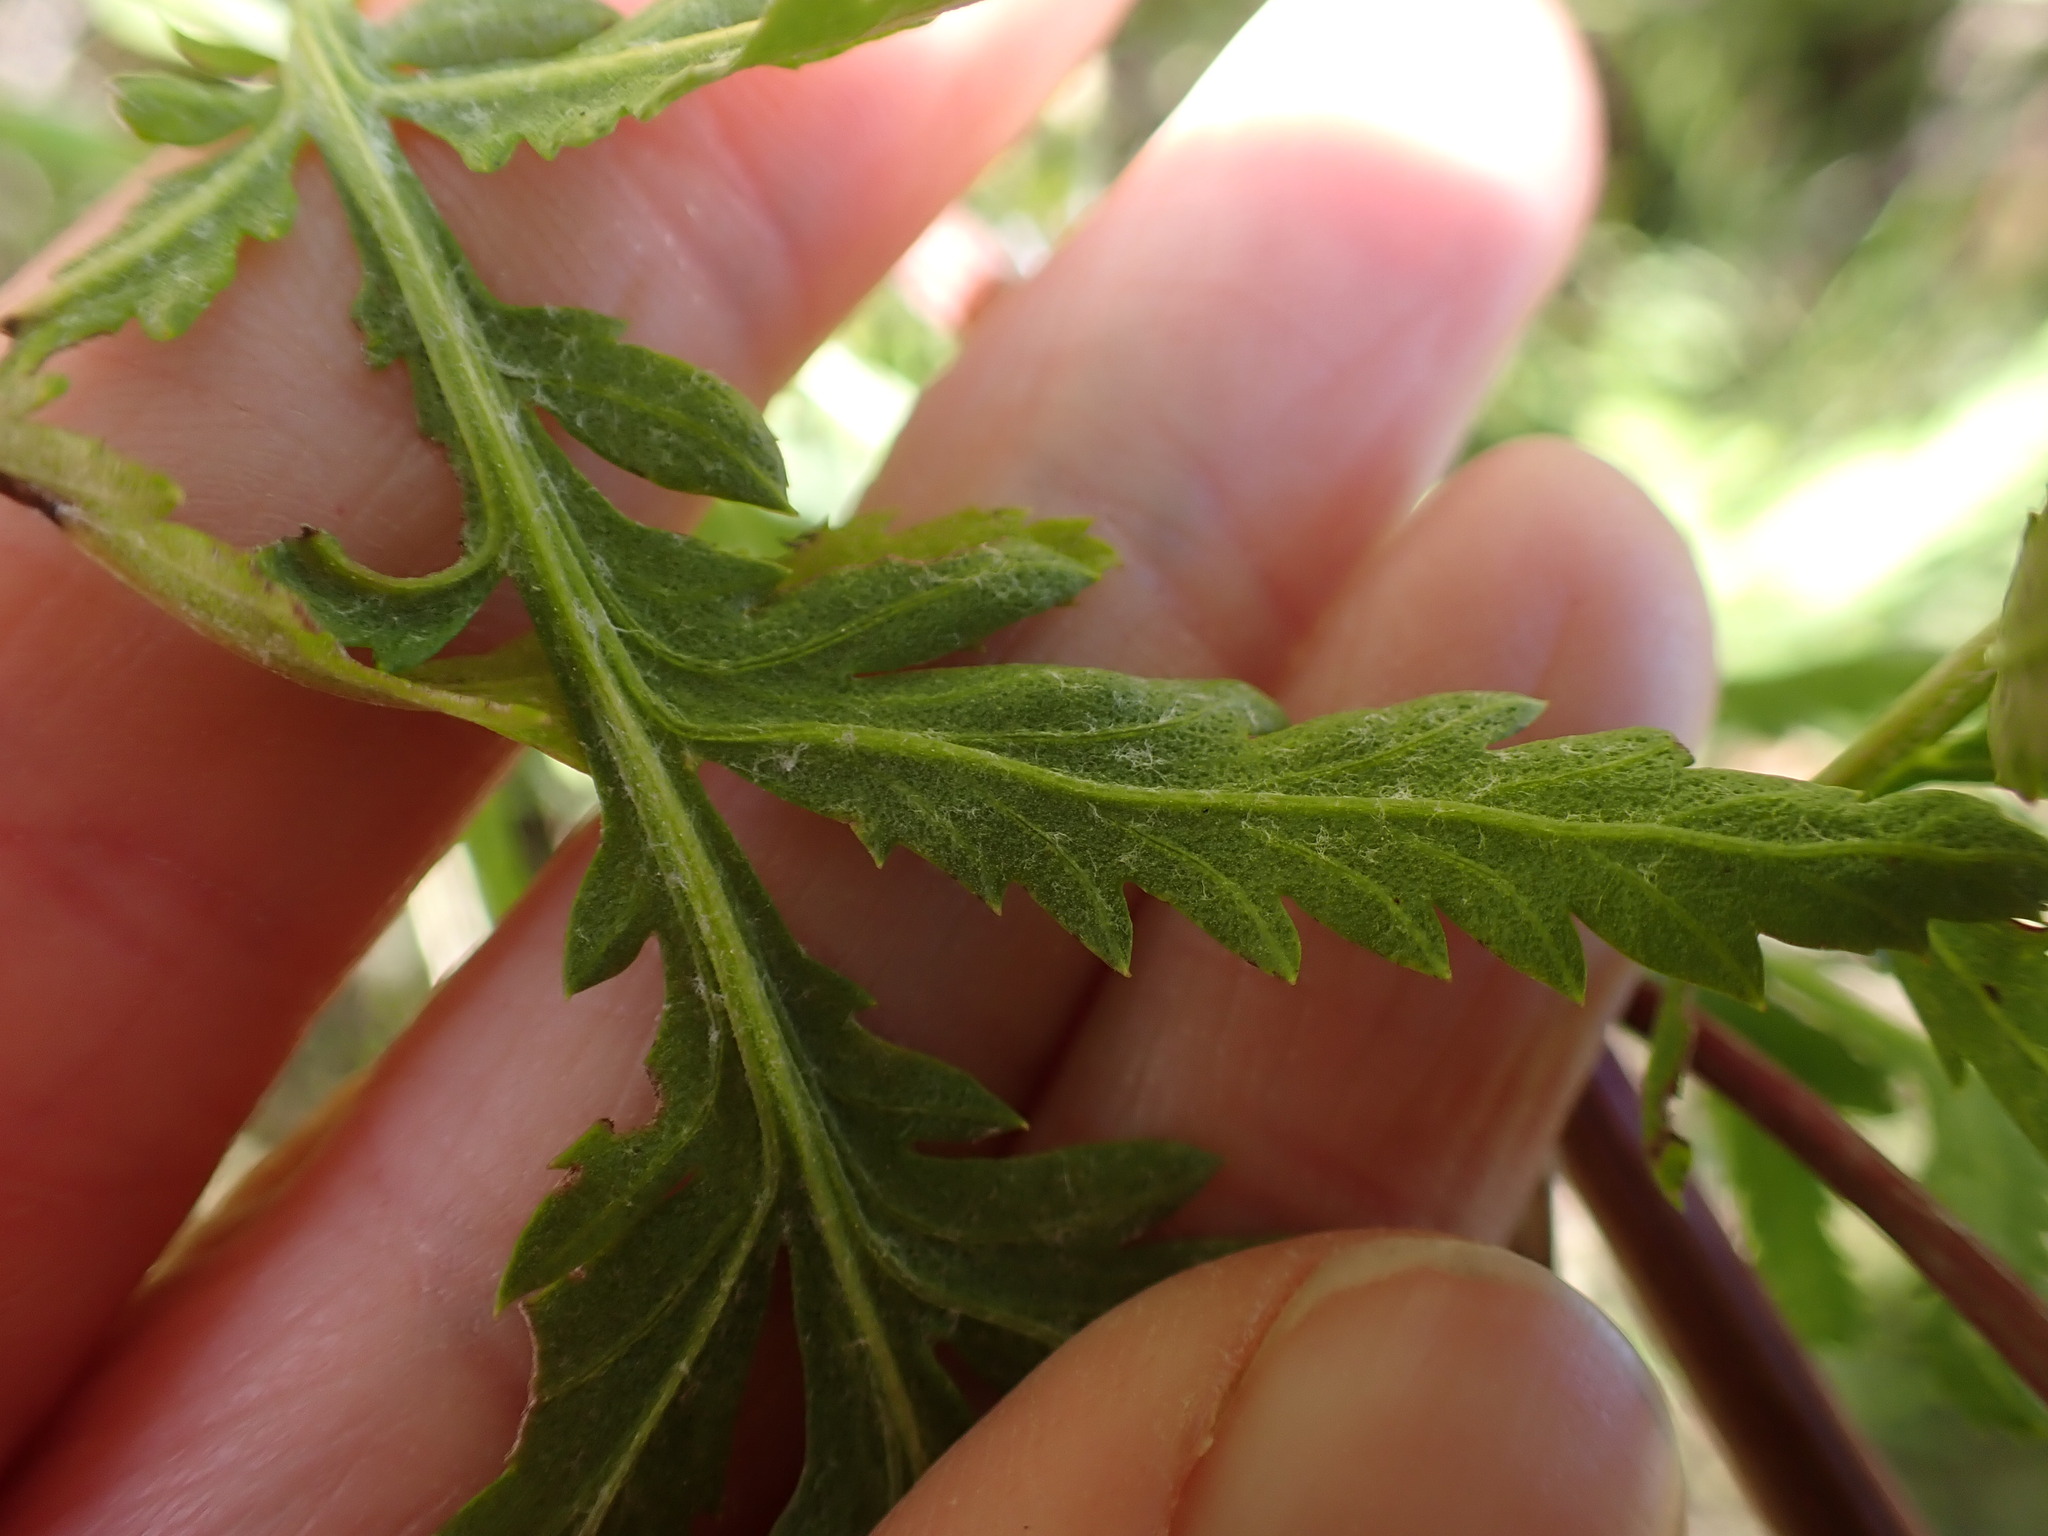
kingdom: Plantae
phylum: Tracheophyta
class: Magnoliopsida
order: Asterales
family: Asteraceae
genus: Tanacetum
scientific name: Tanacetum vulgare
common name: Common tansy
